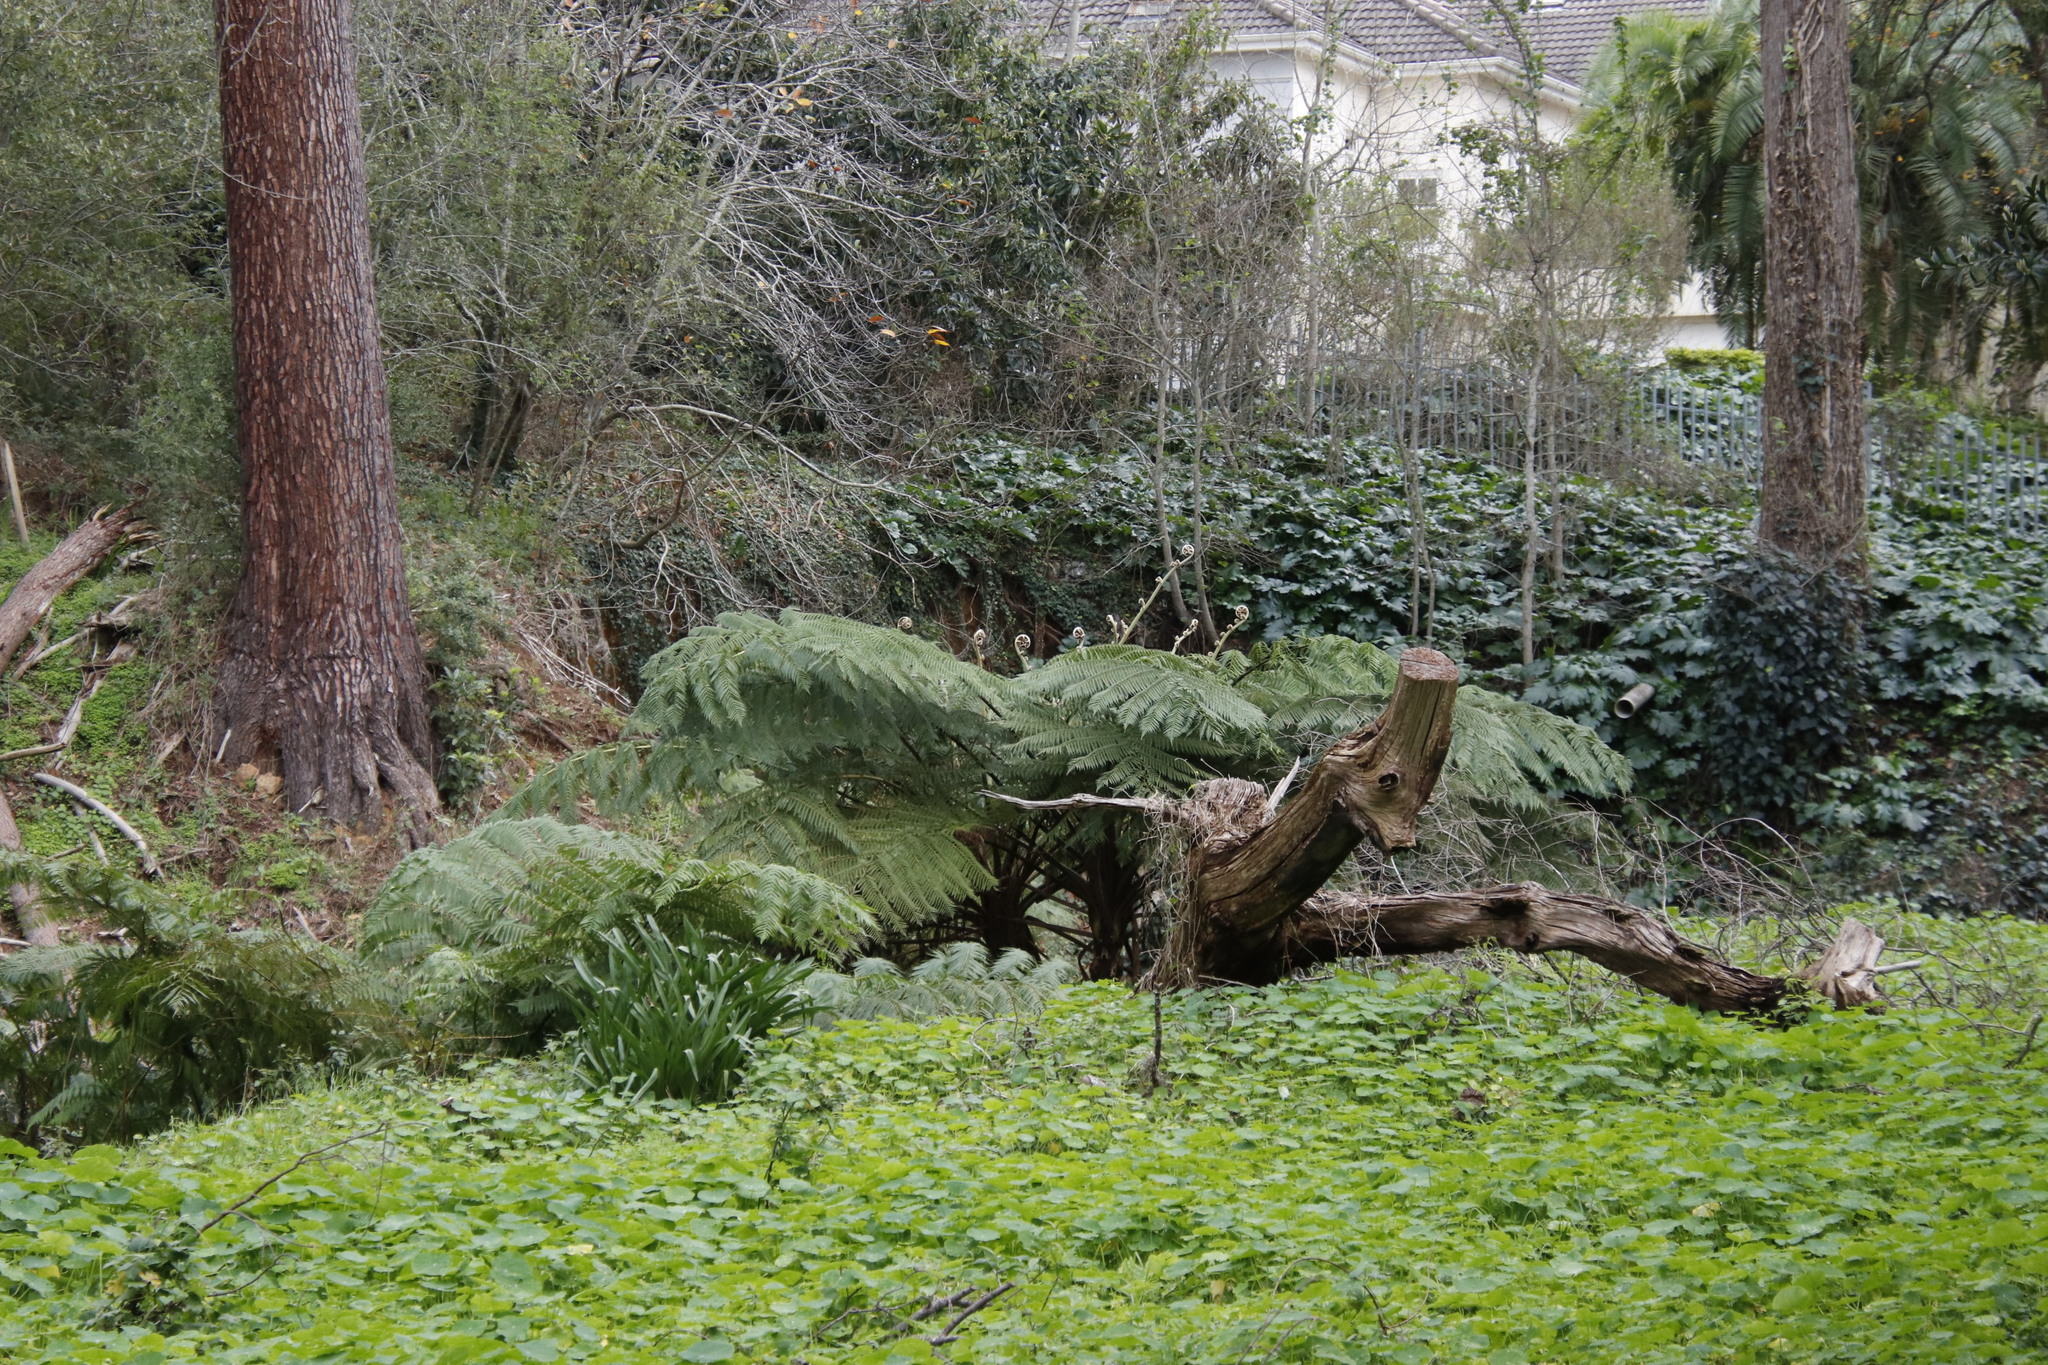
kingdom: Plantae
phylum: Tracheophyta
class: Polypodiopsida
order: Cyatheales
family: Cyatheaceae
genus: Sphaeropteris
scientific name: Sphaeropteris cooperi
